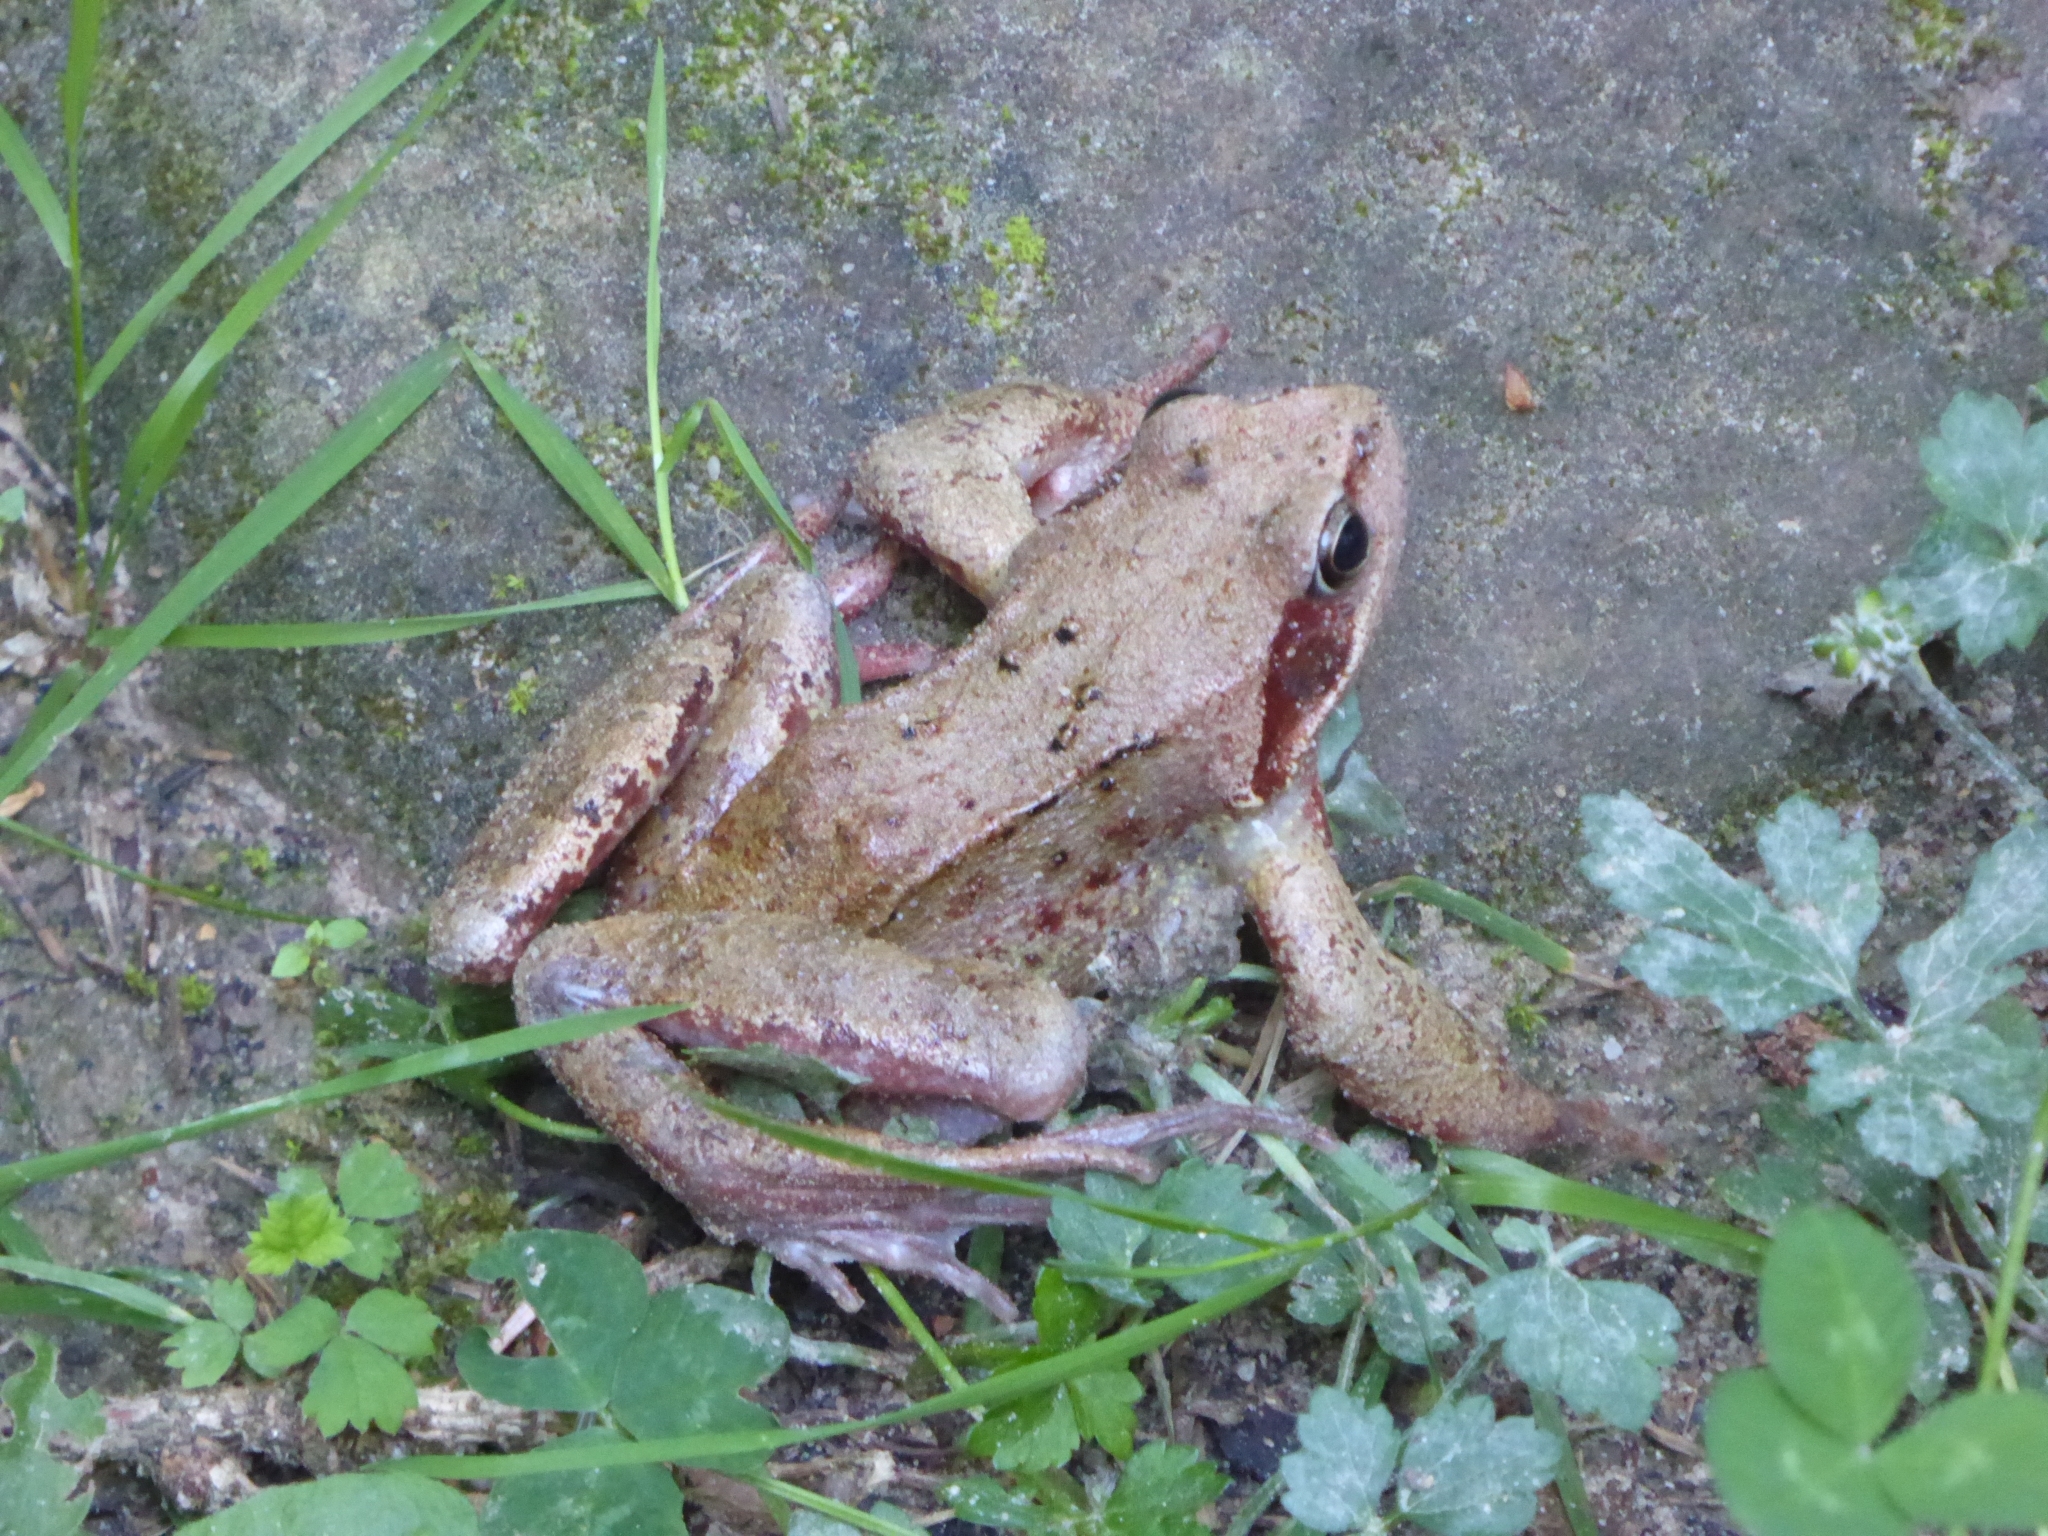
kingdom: Animalia
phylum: Chordata
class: Amphibia
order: Anura
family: Ranidae
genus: Rana
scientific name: Rana temporaria
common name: Common frog
